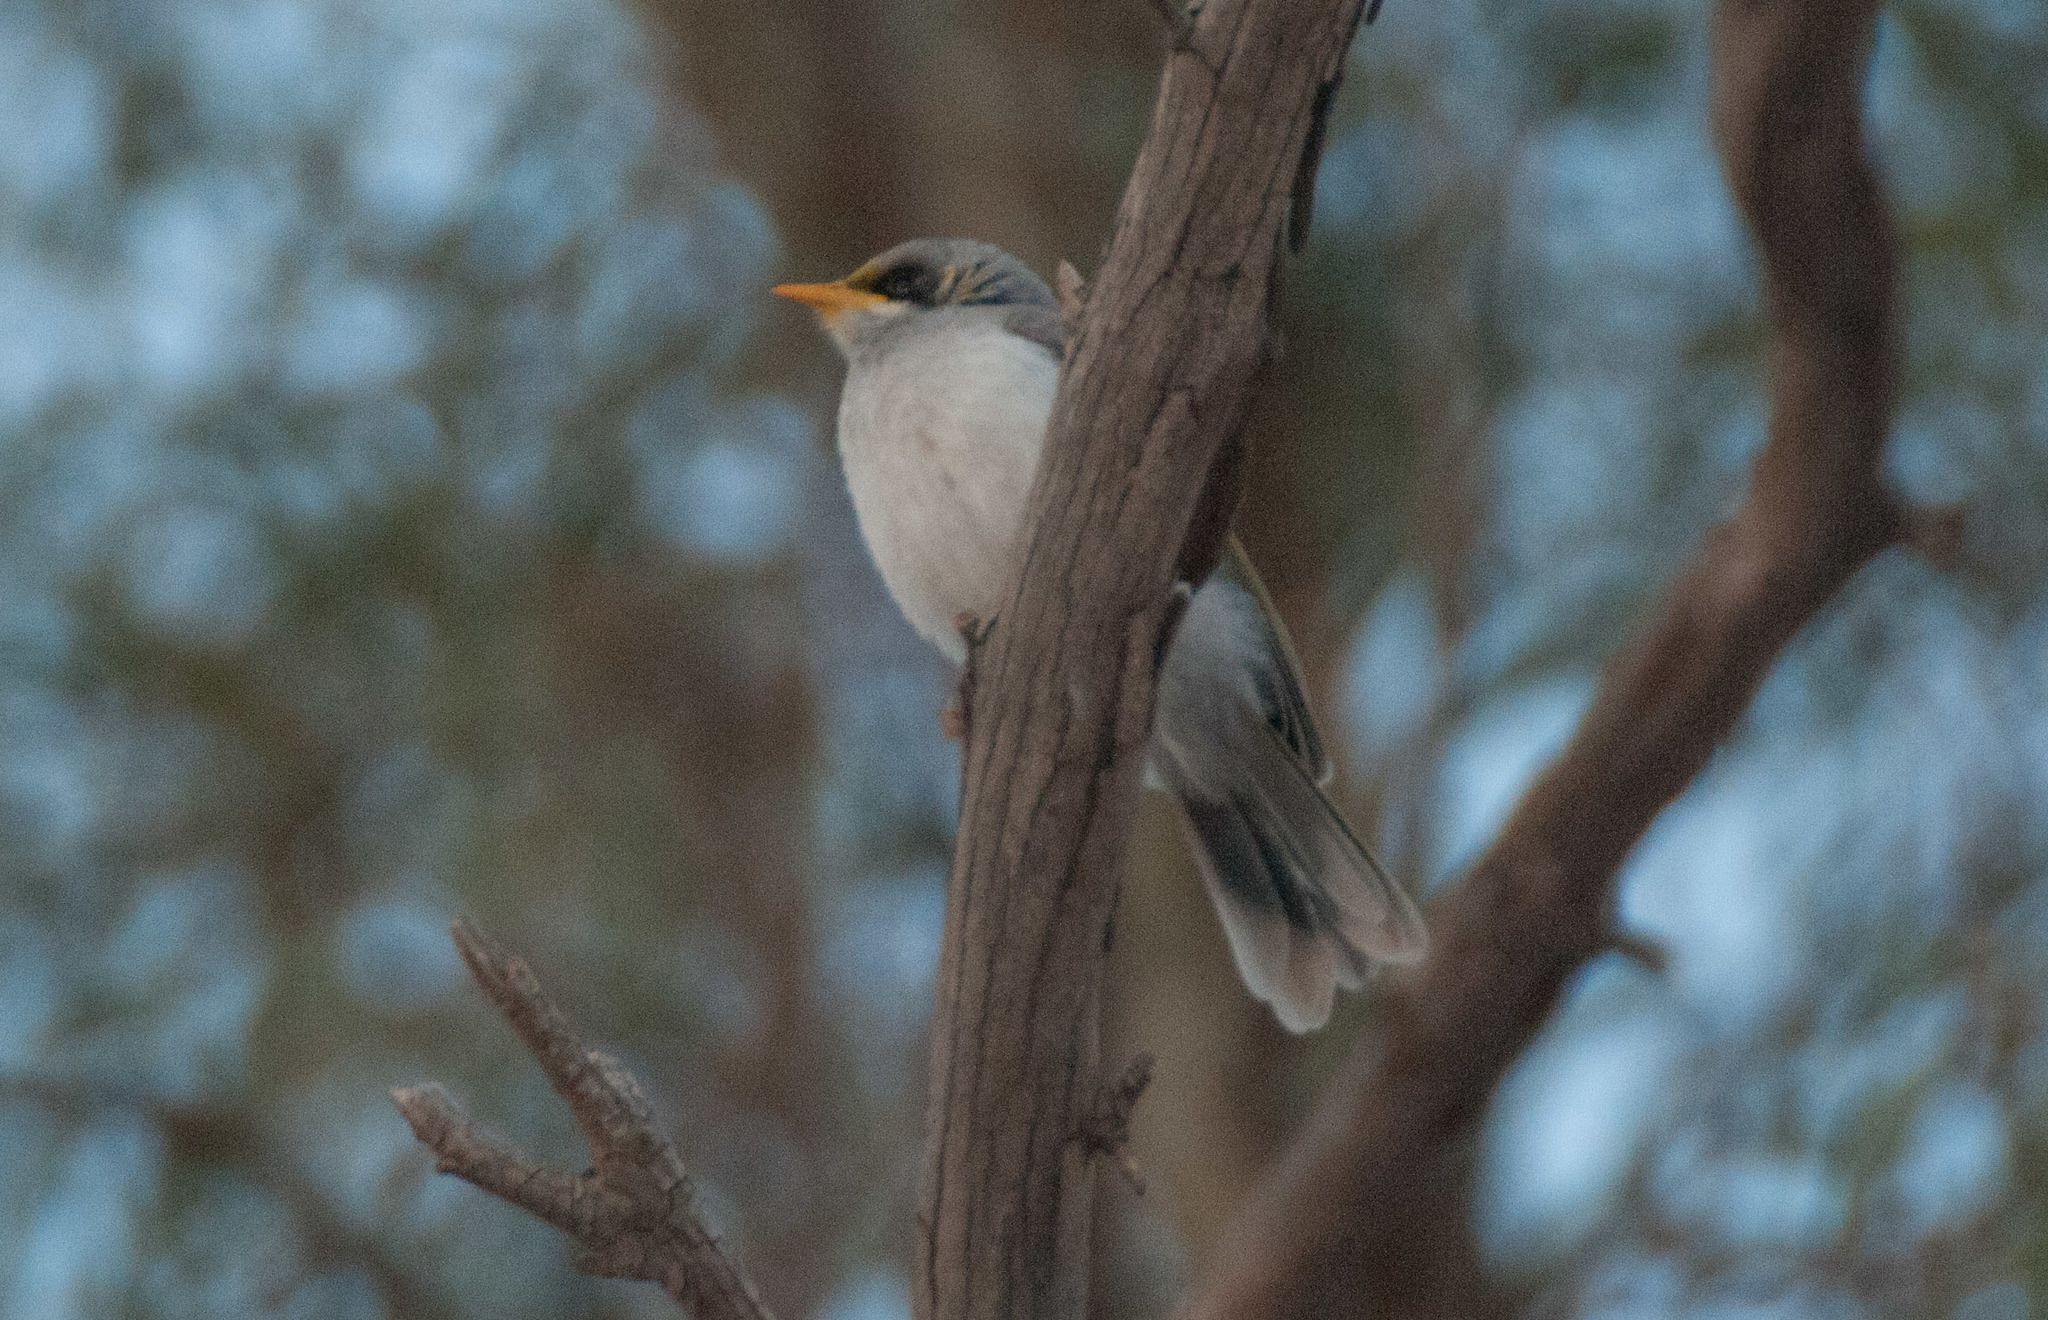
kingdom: Animalia
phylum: Chordata
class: Aves
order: Passeriformes
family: Meliphagidae
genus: Manorina
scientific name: Manorina flavigula
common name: Yellow-throated miner
